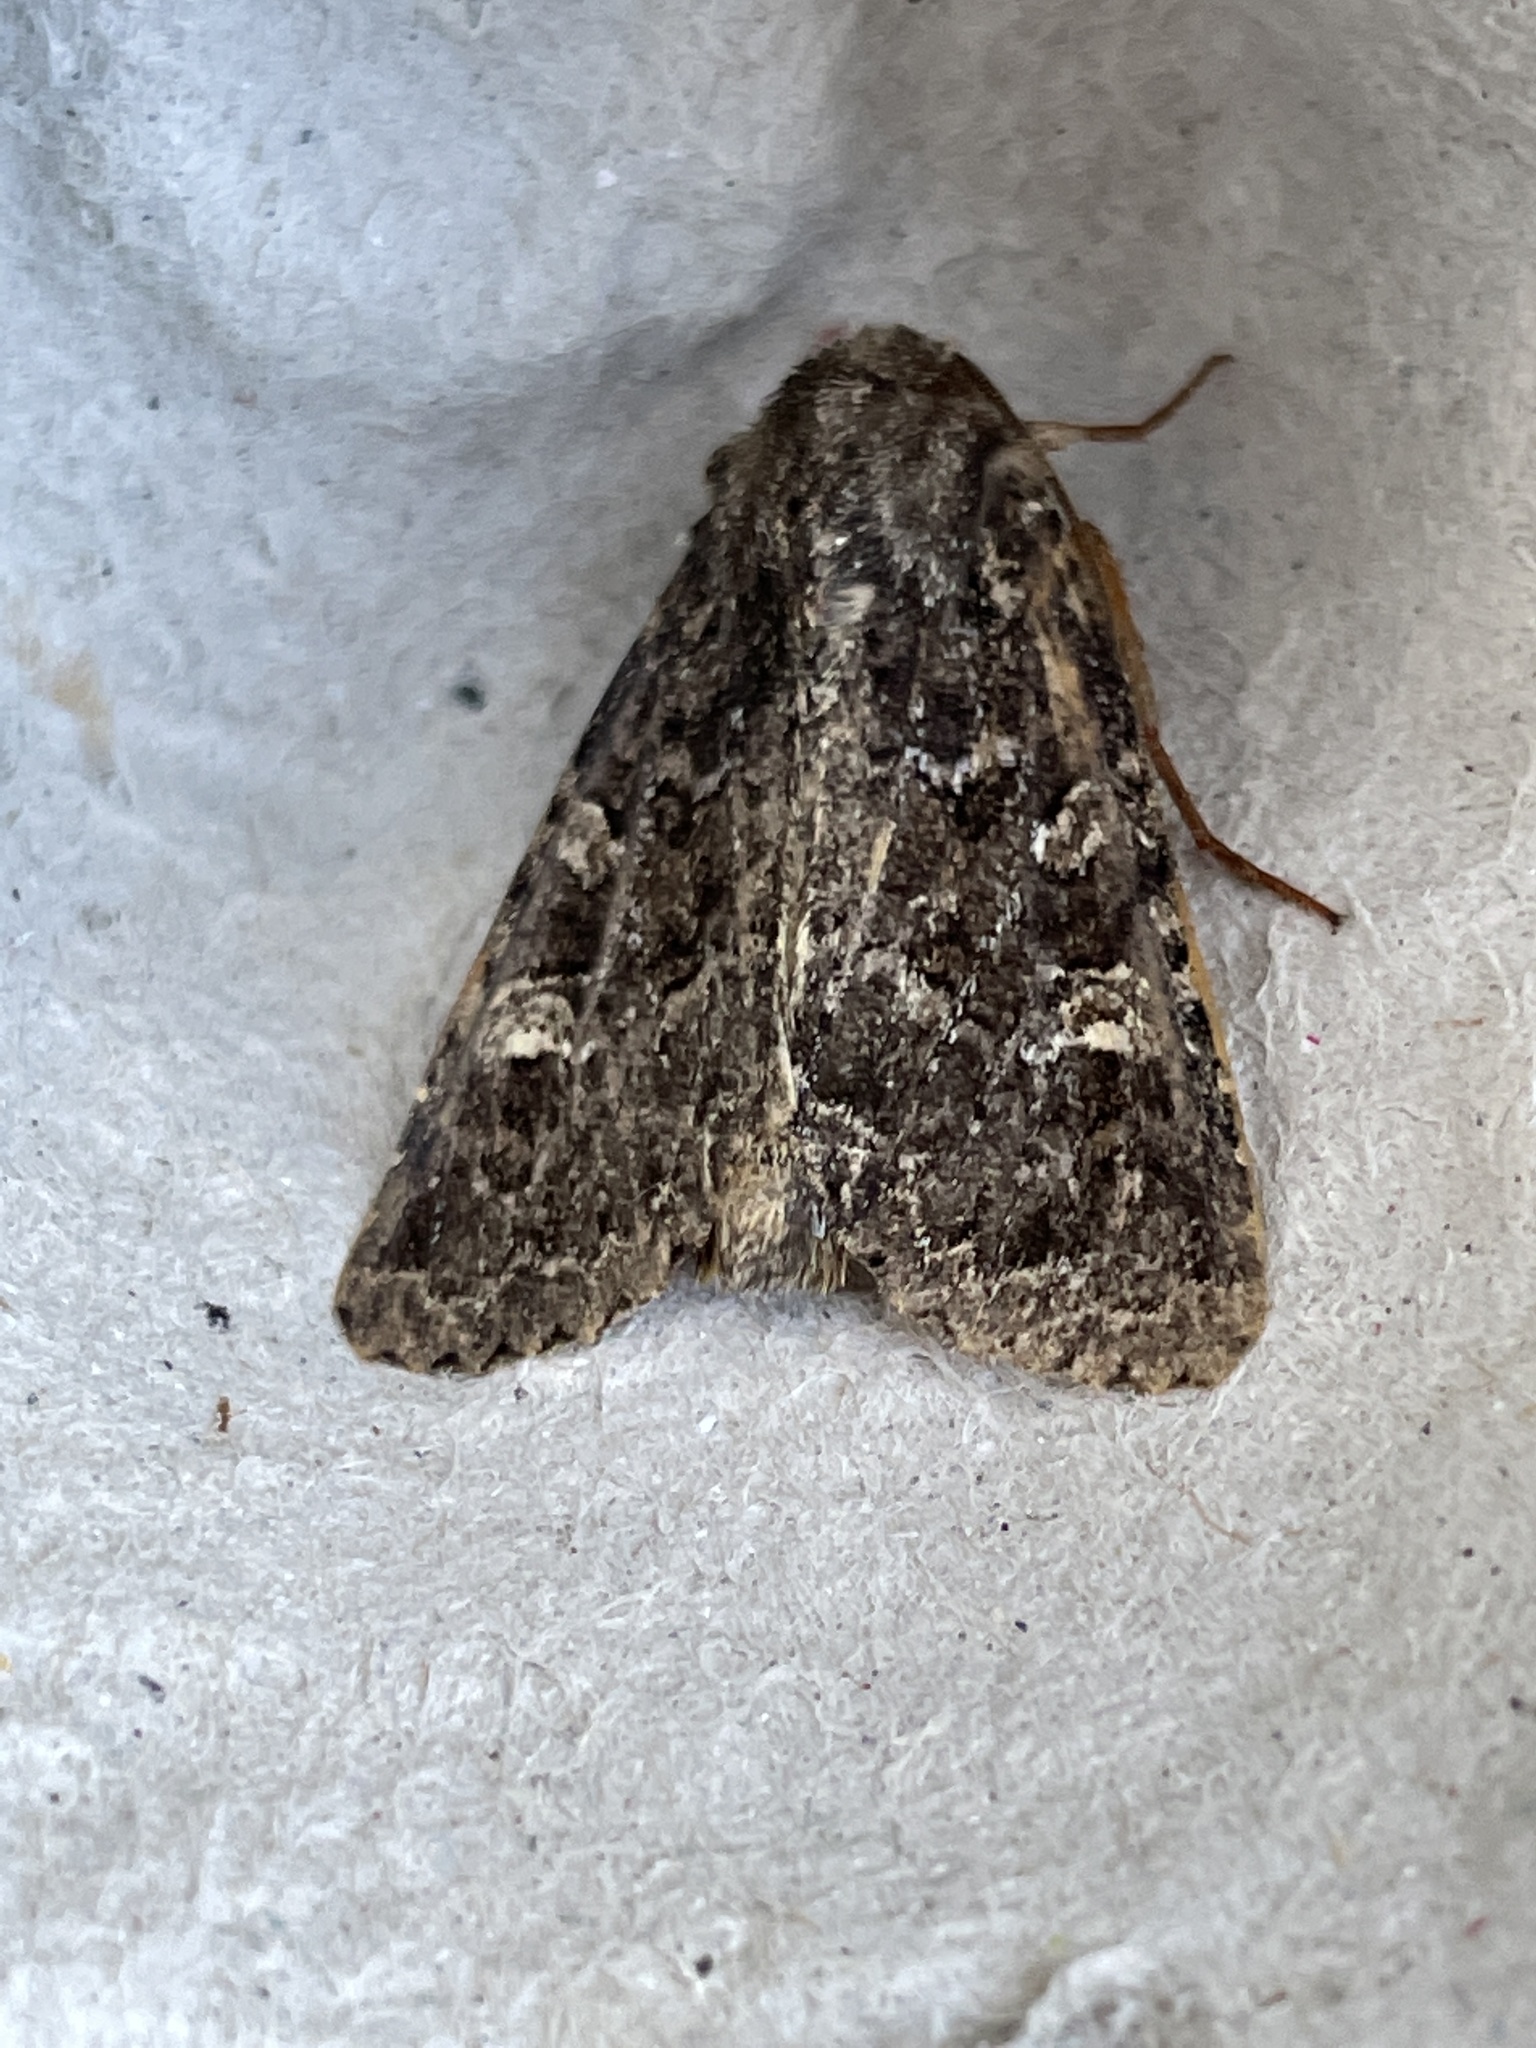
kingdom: Animalia
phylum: Arthropoda
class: Insecta
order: Lepidoptera
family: Noctuidae
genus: Hadena
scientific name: Hadena capsincola
